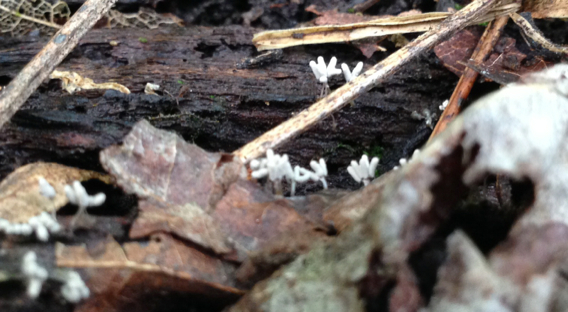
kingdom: Protozoa
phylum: Mycetozoa
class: Myxomycetes
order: Trichiales
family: Arcyriaceae
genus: Arcyria
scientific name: Arcyria cinerea
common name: White carnival candy slime mold
